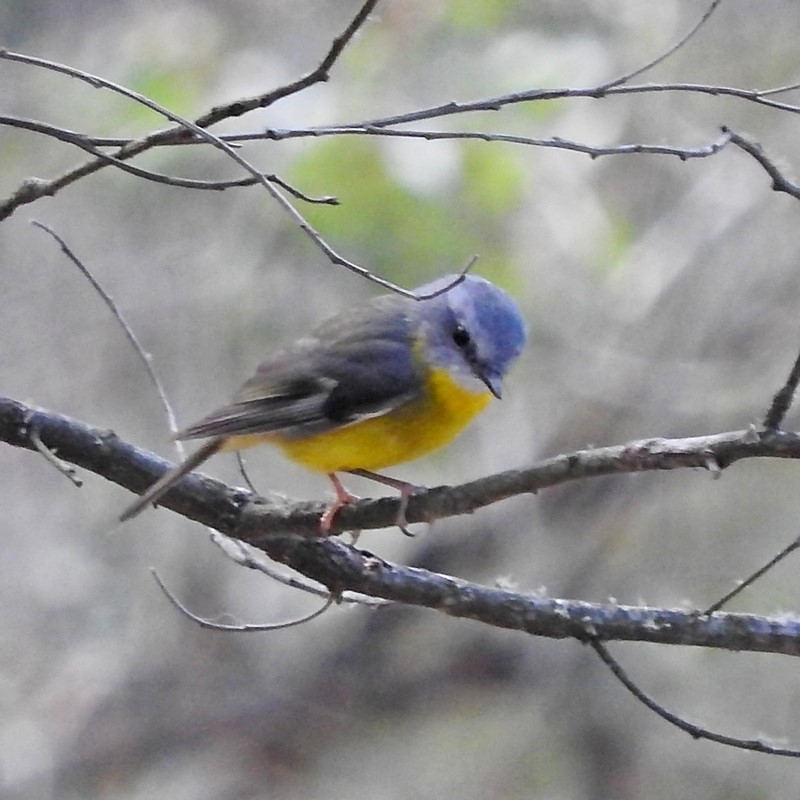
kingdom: Animalia
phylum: Chordata
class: Aves
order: Passeriformes
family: Petroicidae
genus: Eopsaltria
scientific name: Eopsaltria australis
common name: Eastern yellow robin
